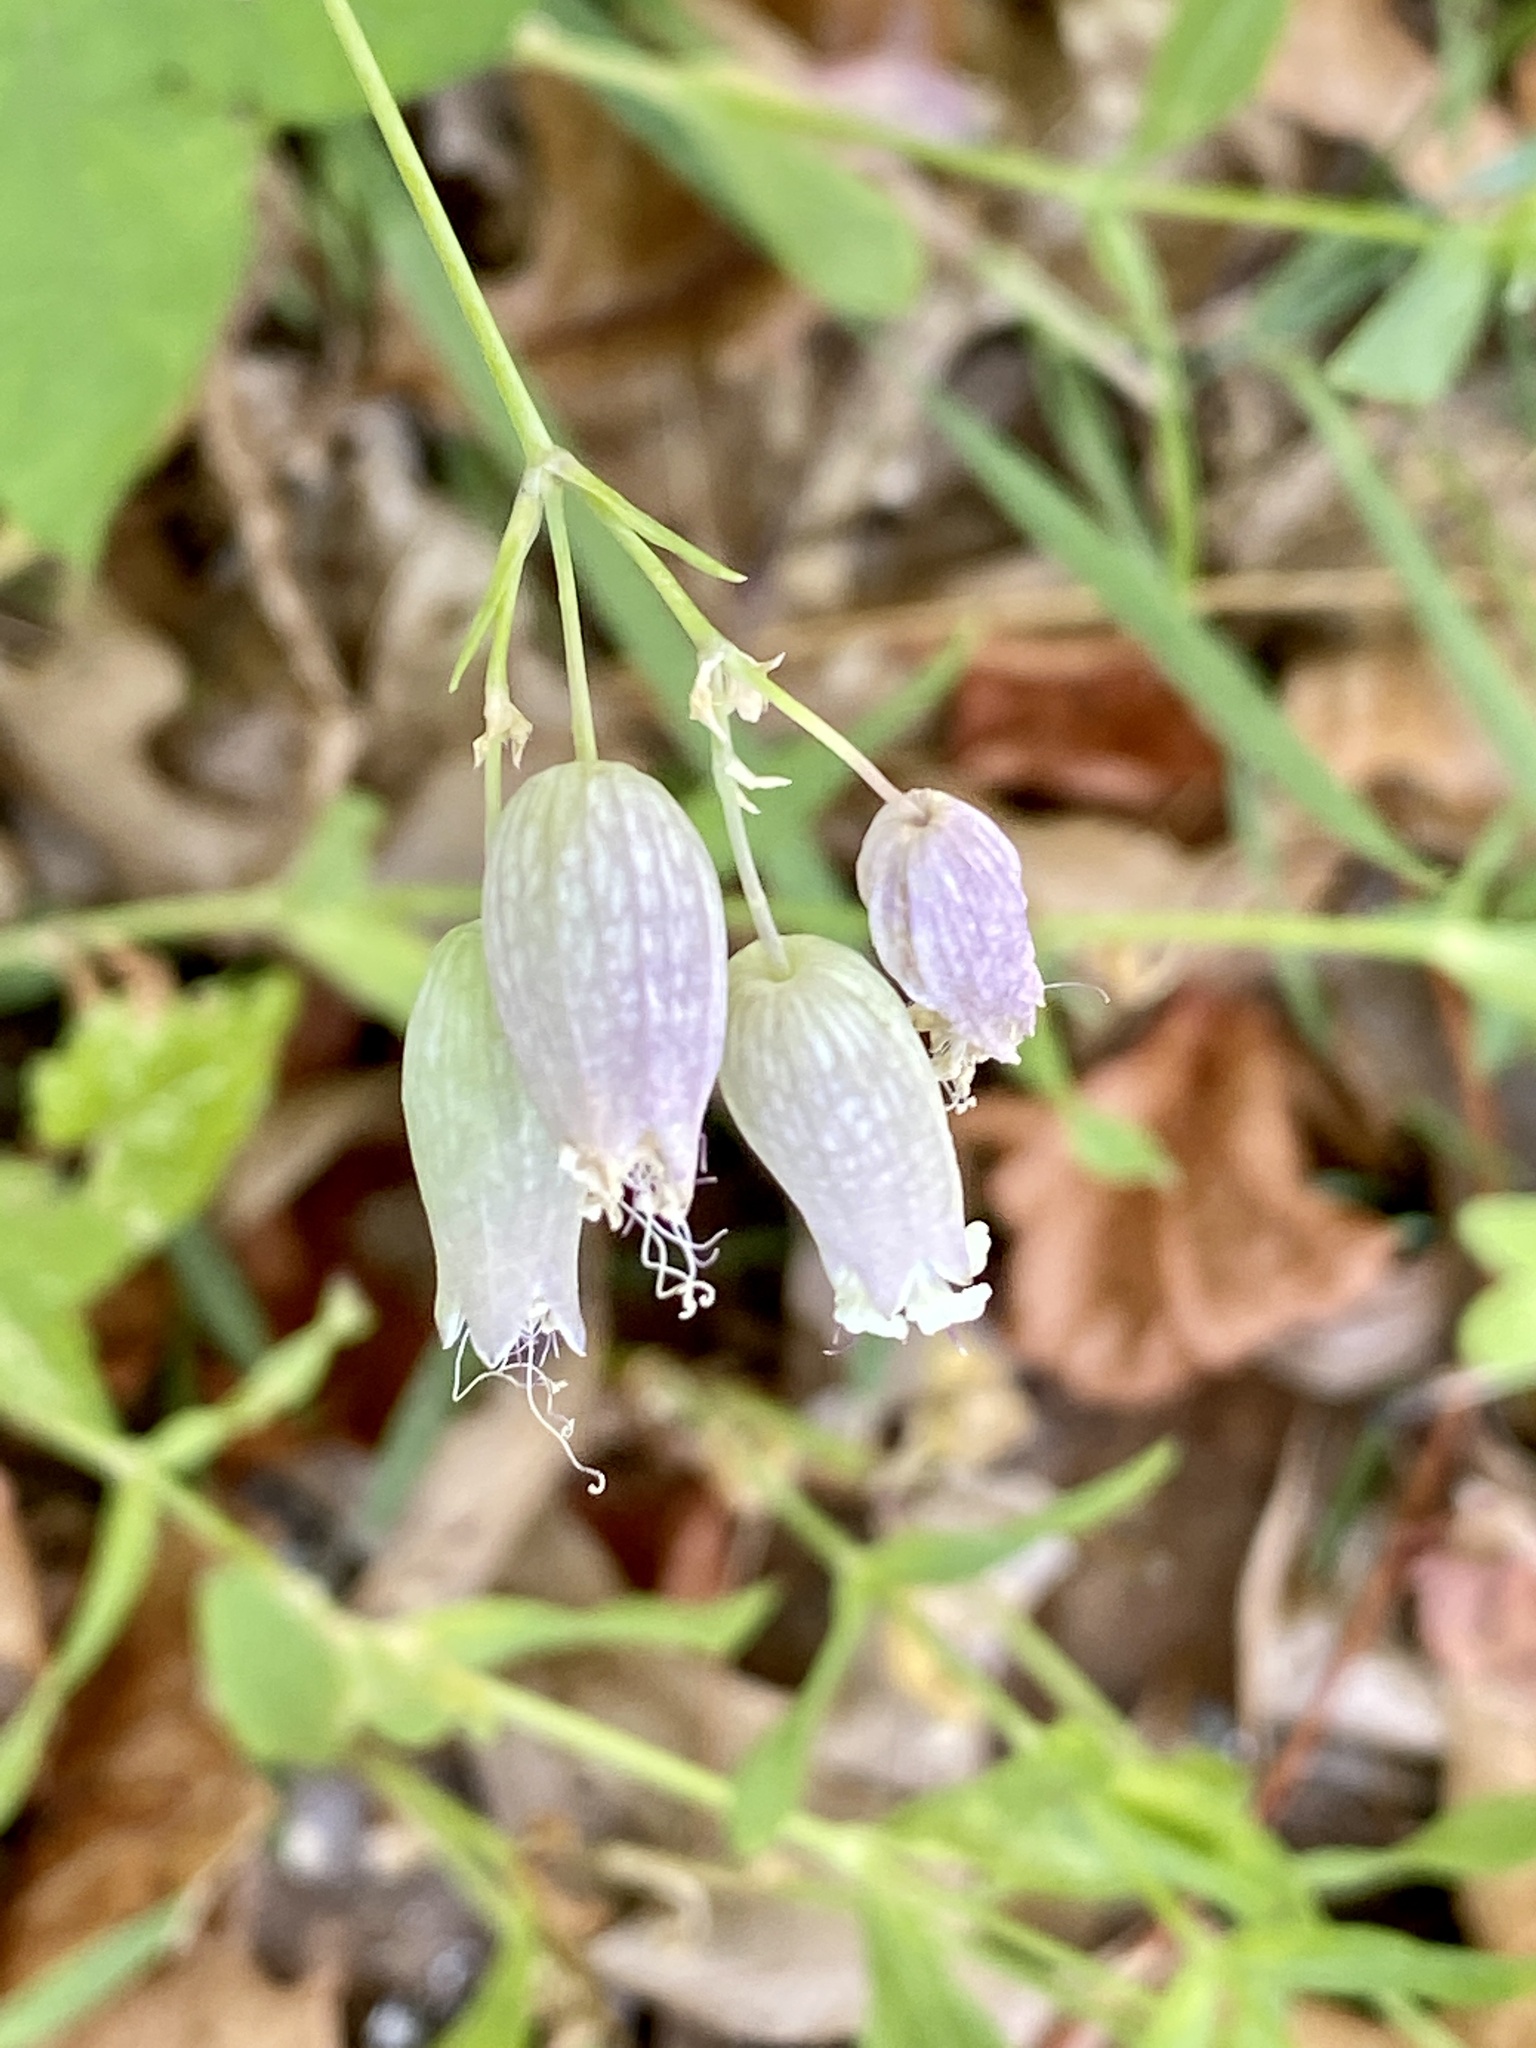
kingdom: Plantae
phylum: Tracheophyta
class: Magnoliopsida
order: Caryophyllales
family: Caryophyllaceae
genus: Silene
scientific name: Silene vulgaris
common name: Bladder campion
